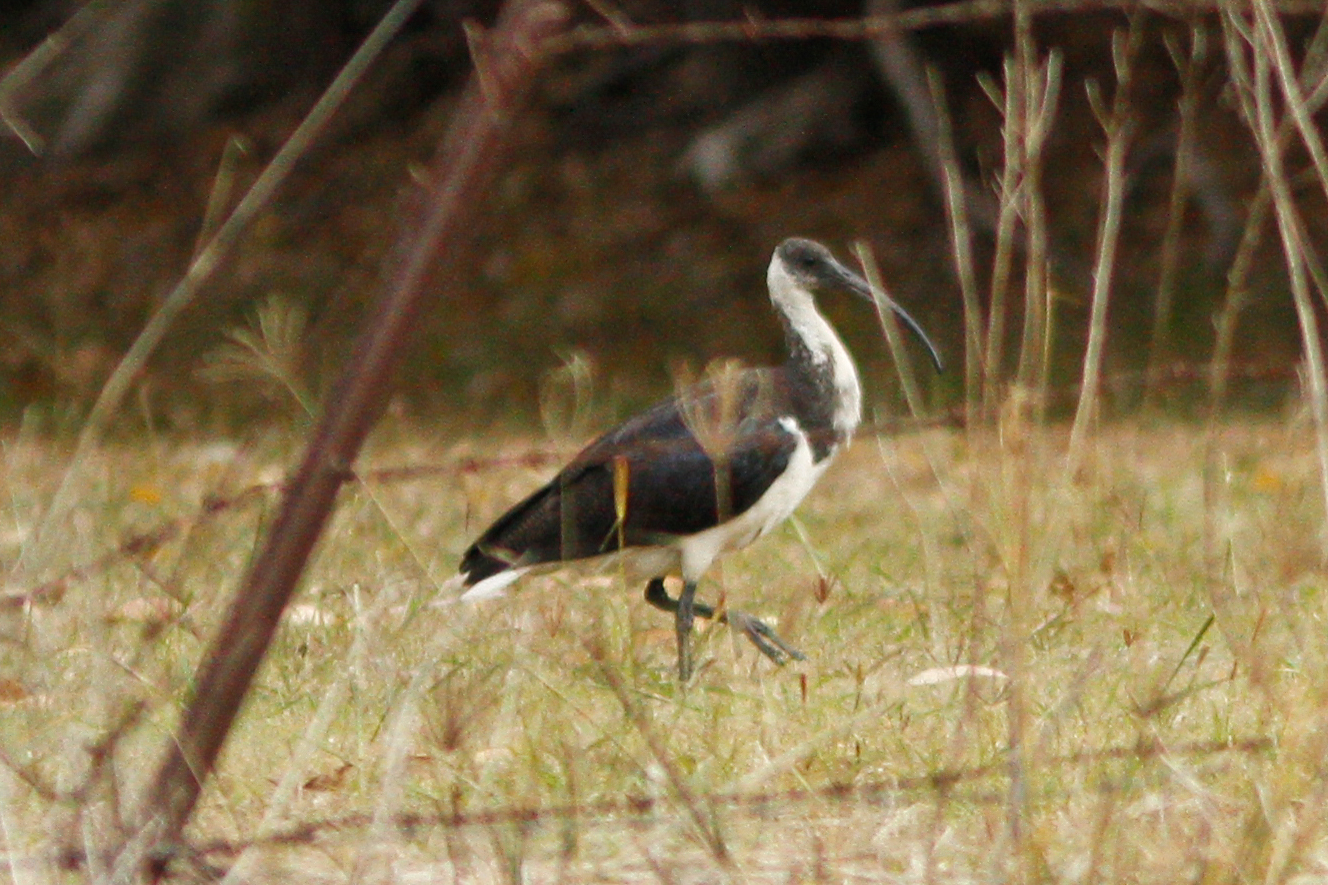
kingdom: Animalia
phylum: Chordata
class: Aves
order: Pelecaniformes
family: Threskiornithidae
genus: Threskiornis
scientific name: Threskiornis spinicollis
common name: Straw-necked ibis
